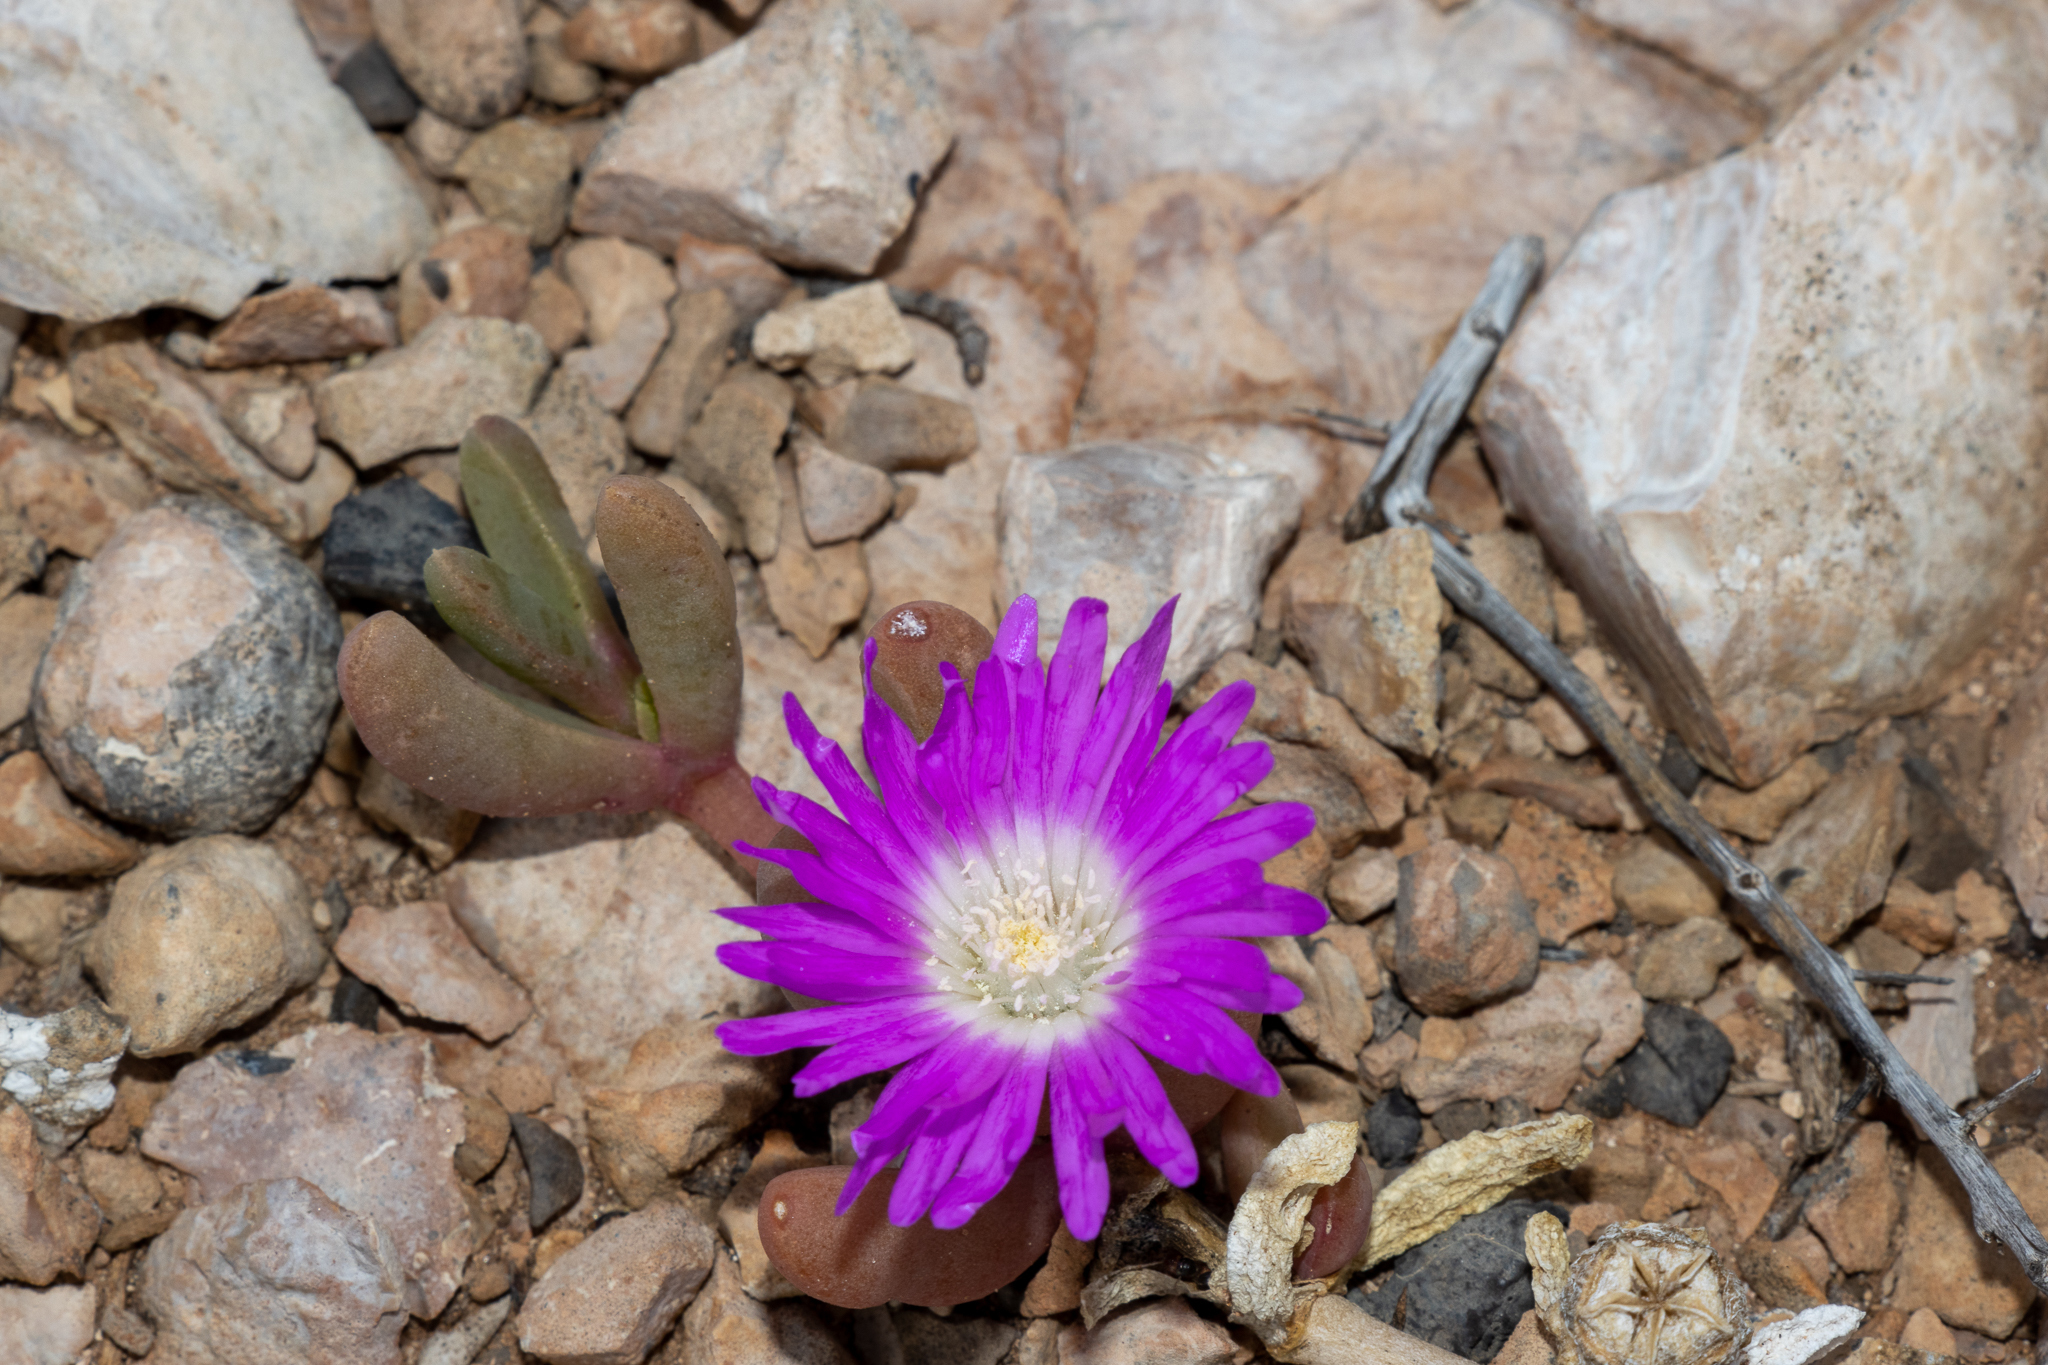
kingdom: Plantae
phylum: Tracheophyta
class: Magnoliopsida
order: Caryophyllales
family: Aizoaceae
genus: Disphyma
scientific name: Disphyma clavellatum
